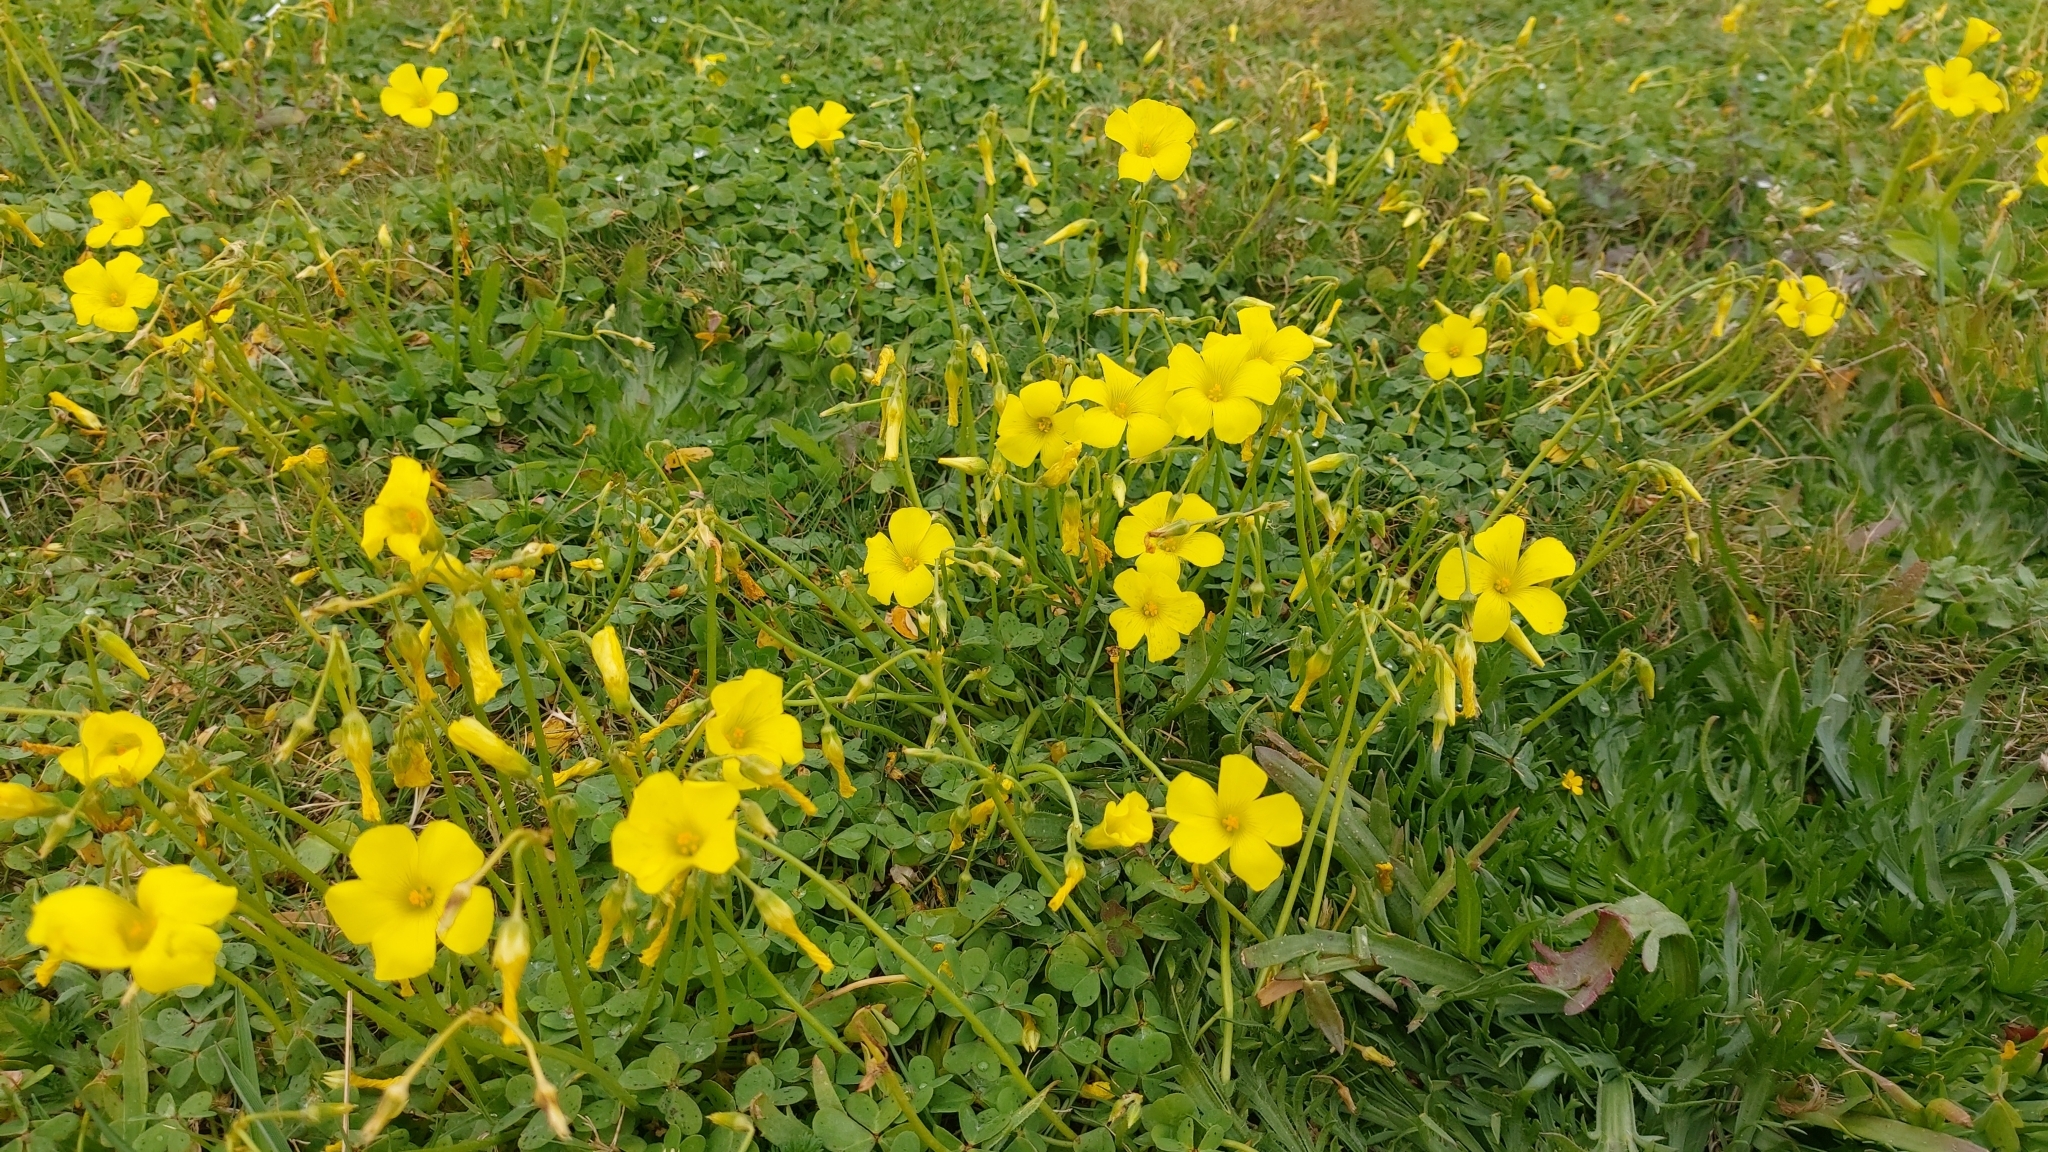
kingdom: Plantae
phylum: Tracheophyta
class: Magnoliopsida
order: Oxalidales
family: Oxalidaceae
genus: Oxalis
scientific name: Oxalis pes-caprae
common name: Bermuda-buttercup
